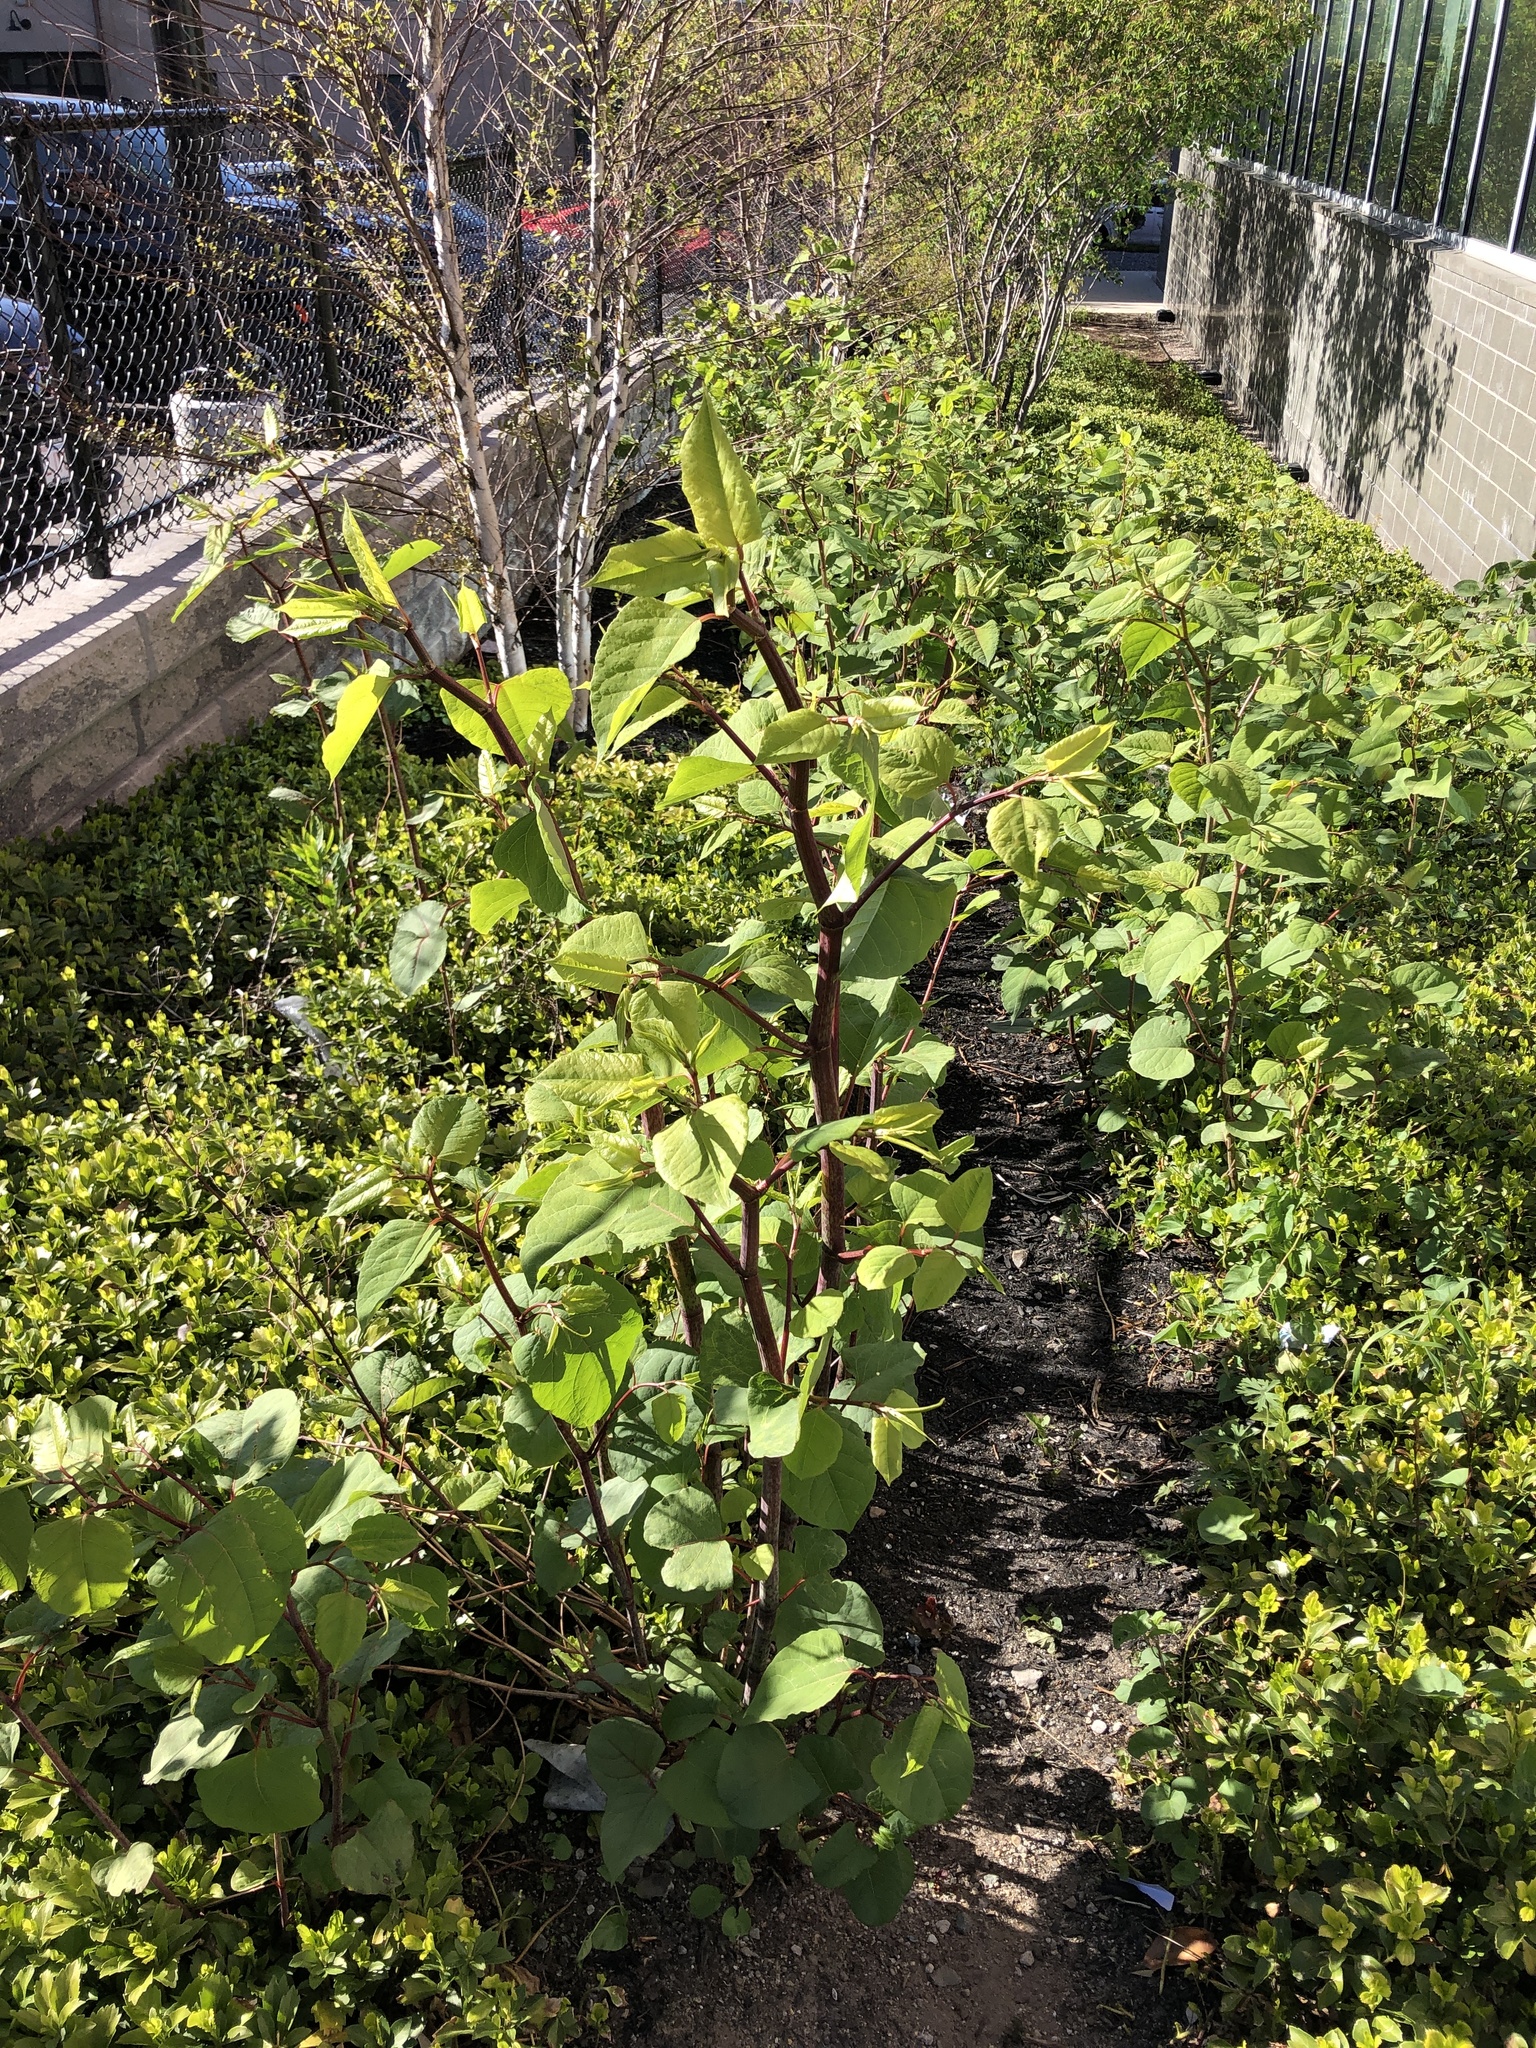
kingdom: Plantae
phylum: Tracheophyta
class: Magnoliopsida
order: Caryophyllales
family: Polygonaceae
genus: Reynoutria
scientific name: Reynoutria japonica
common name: Japanese knotweed
